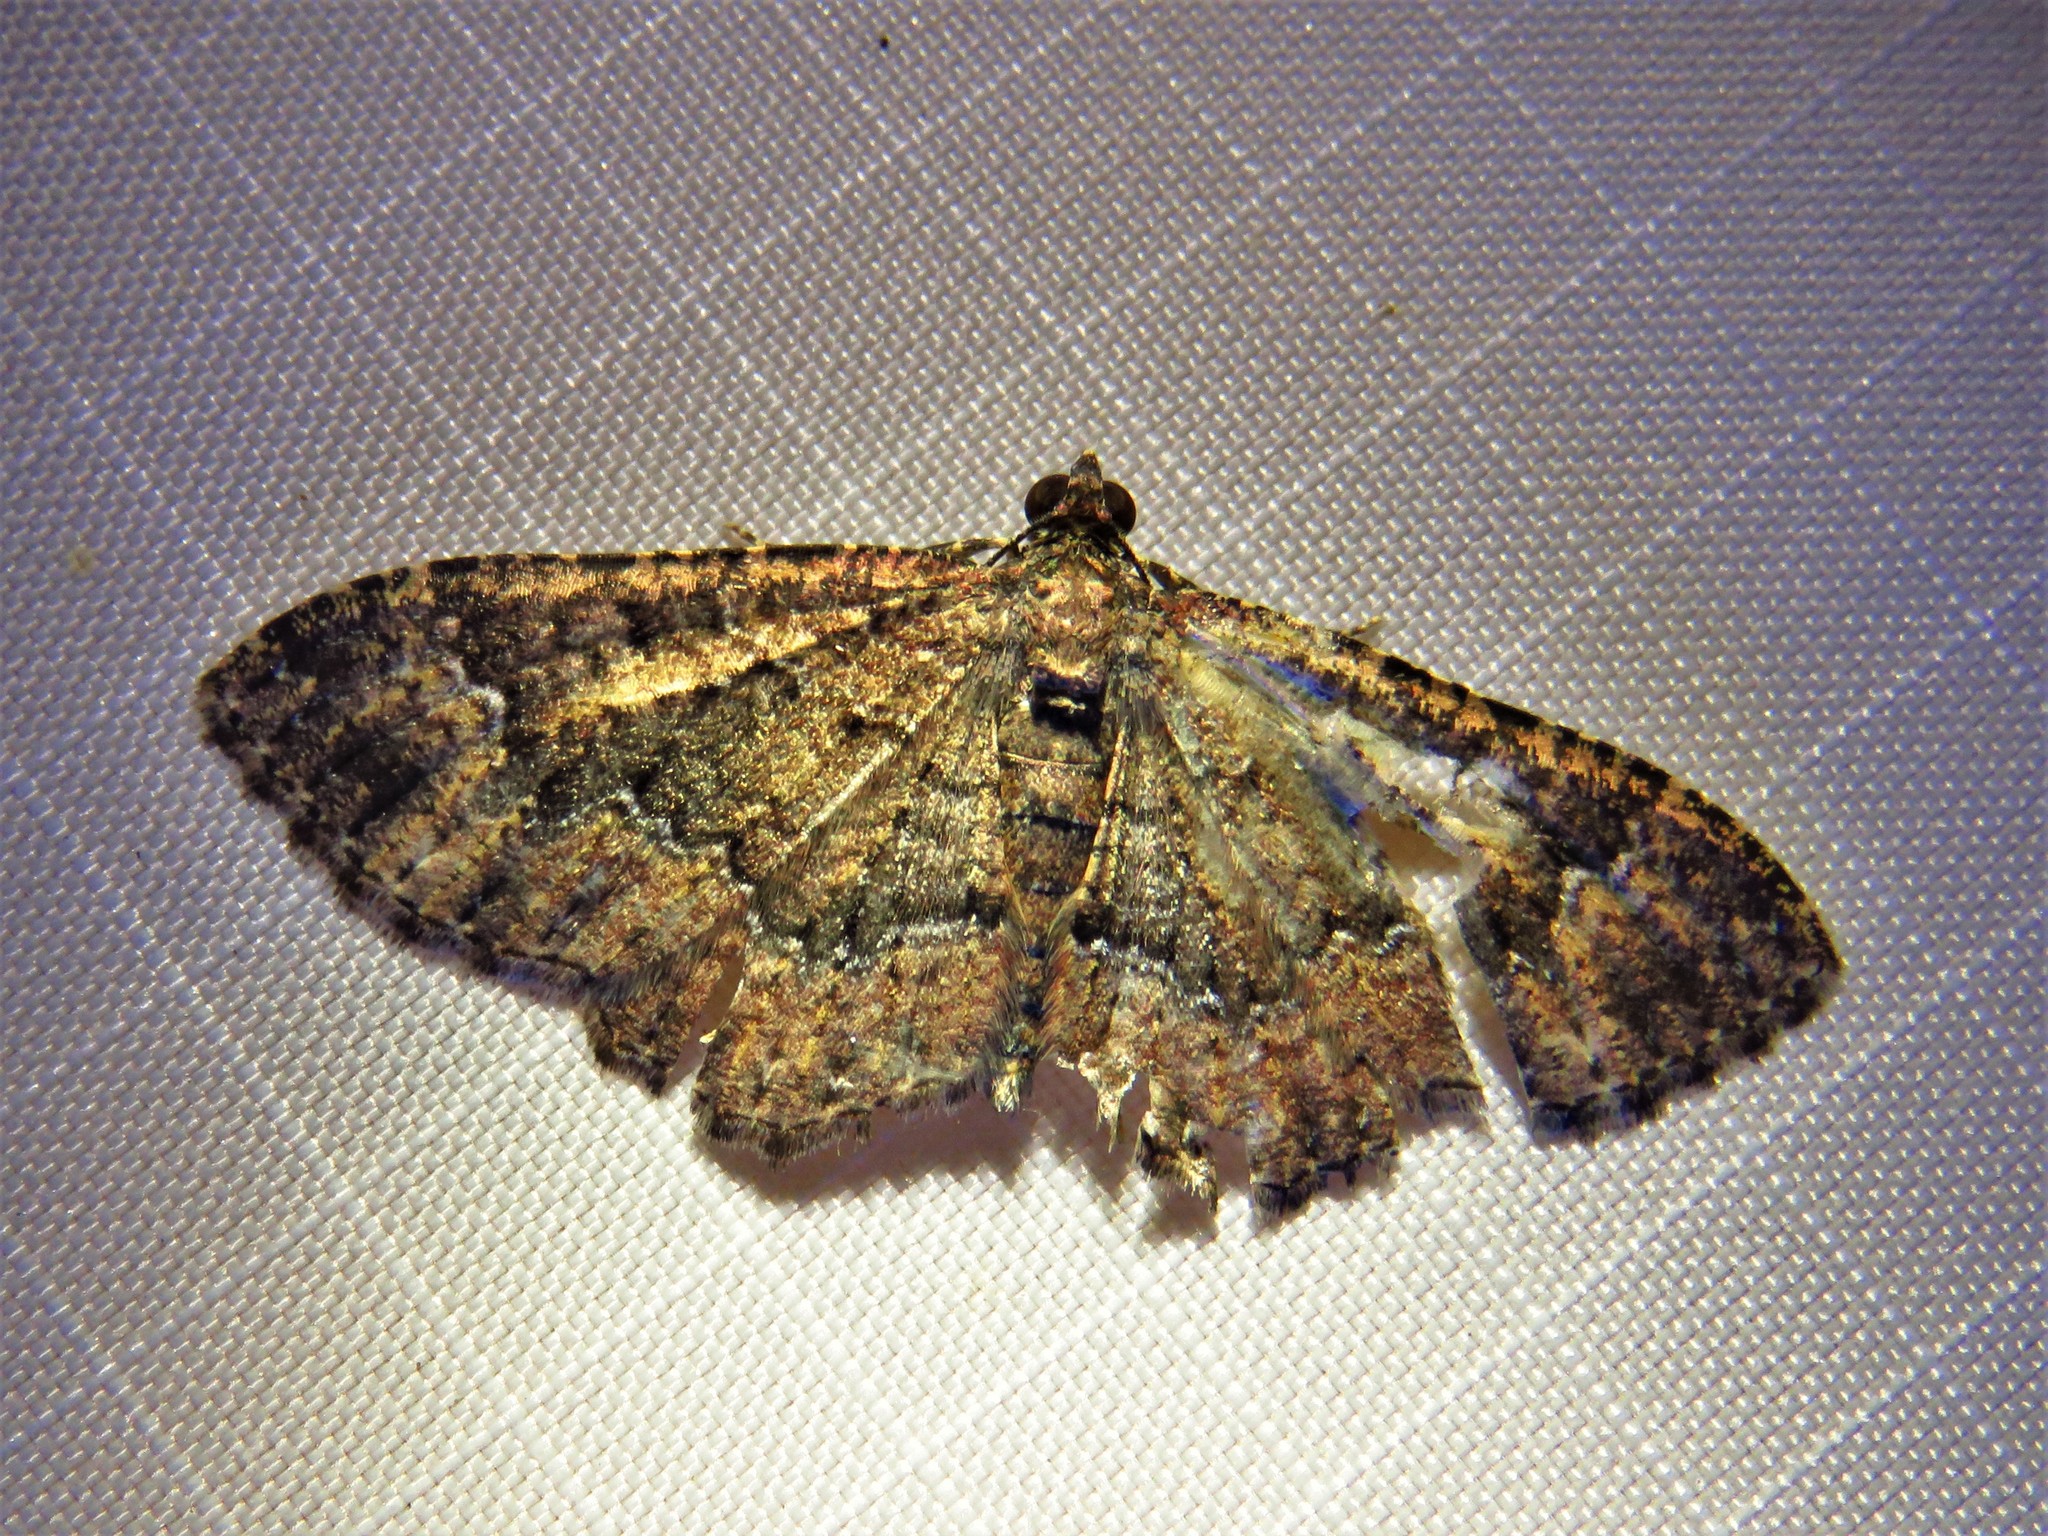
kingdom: Animalia
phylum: Arthropoda
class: Insecta
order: Lepidoptera
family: Geometridae
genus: Disclisioprocta
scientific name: Disclisioprocta stellata
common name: Somber carpet
